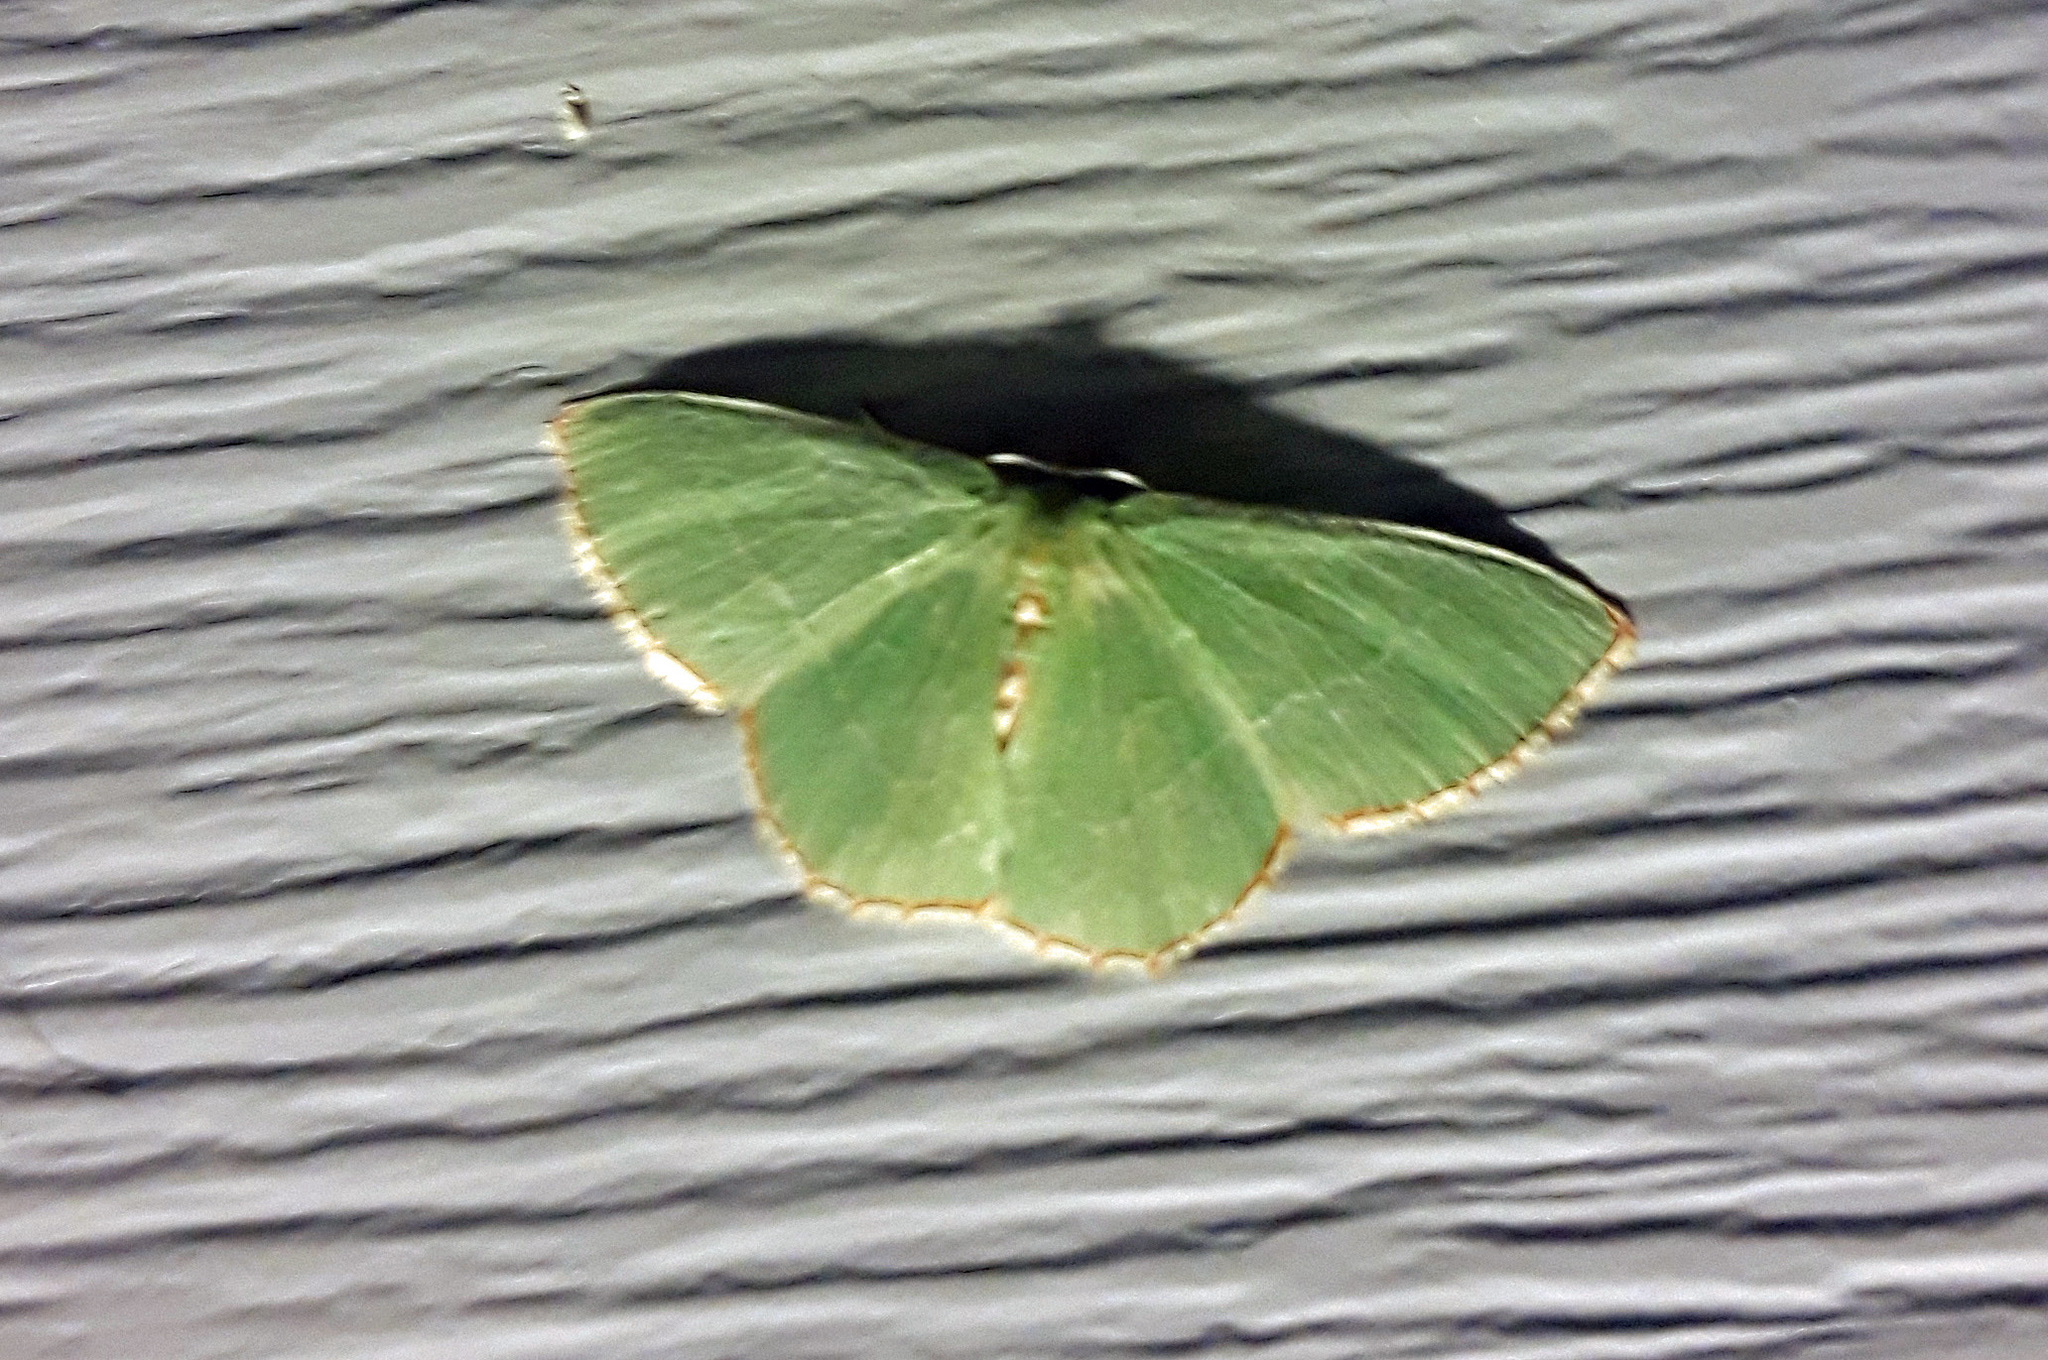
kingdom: Animalia
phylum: Arthropoda
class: Insecta
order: Lepidoptera
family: Geometridae
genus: Nemoria
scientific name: Nemoria lixaria
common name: Red-bordered emerald
